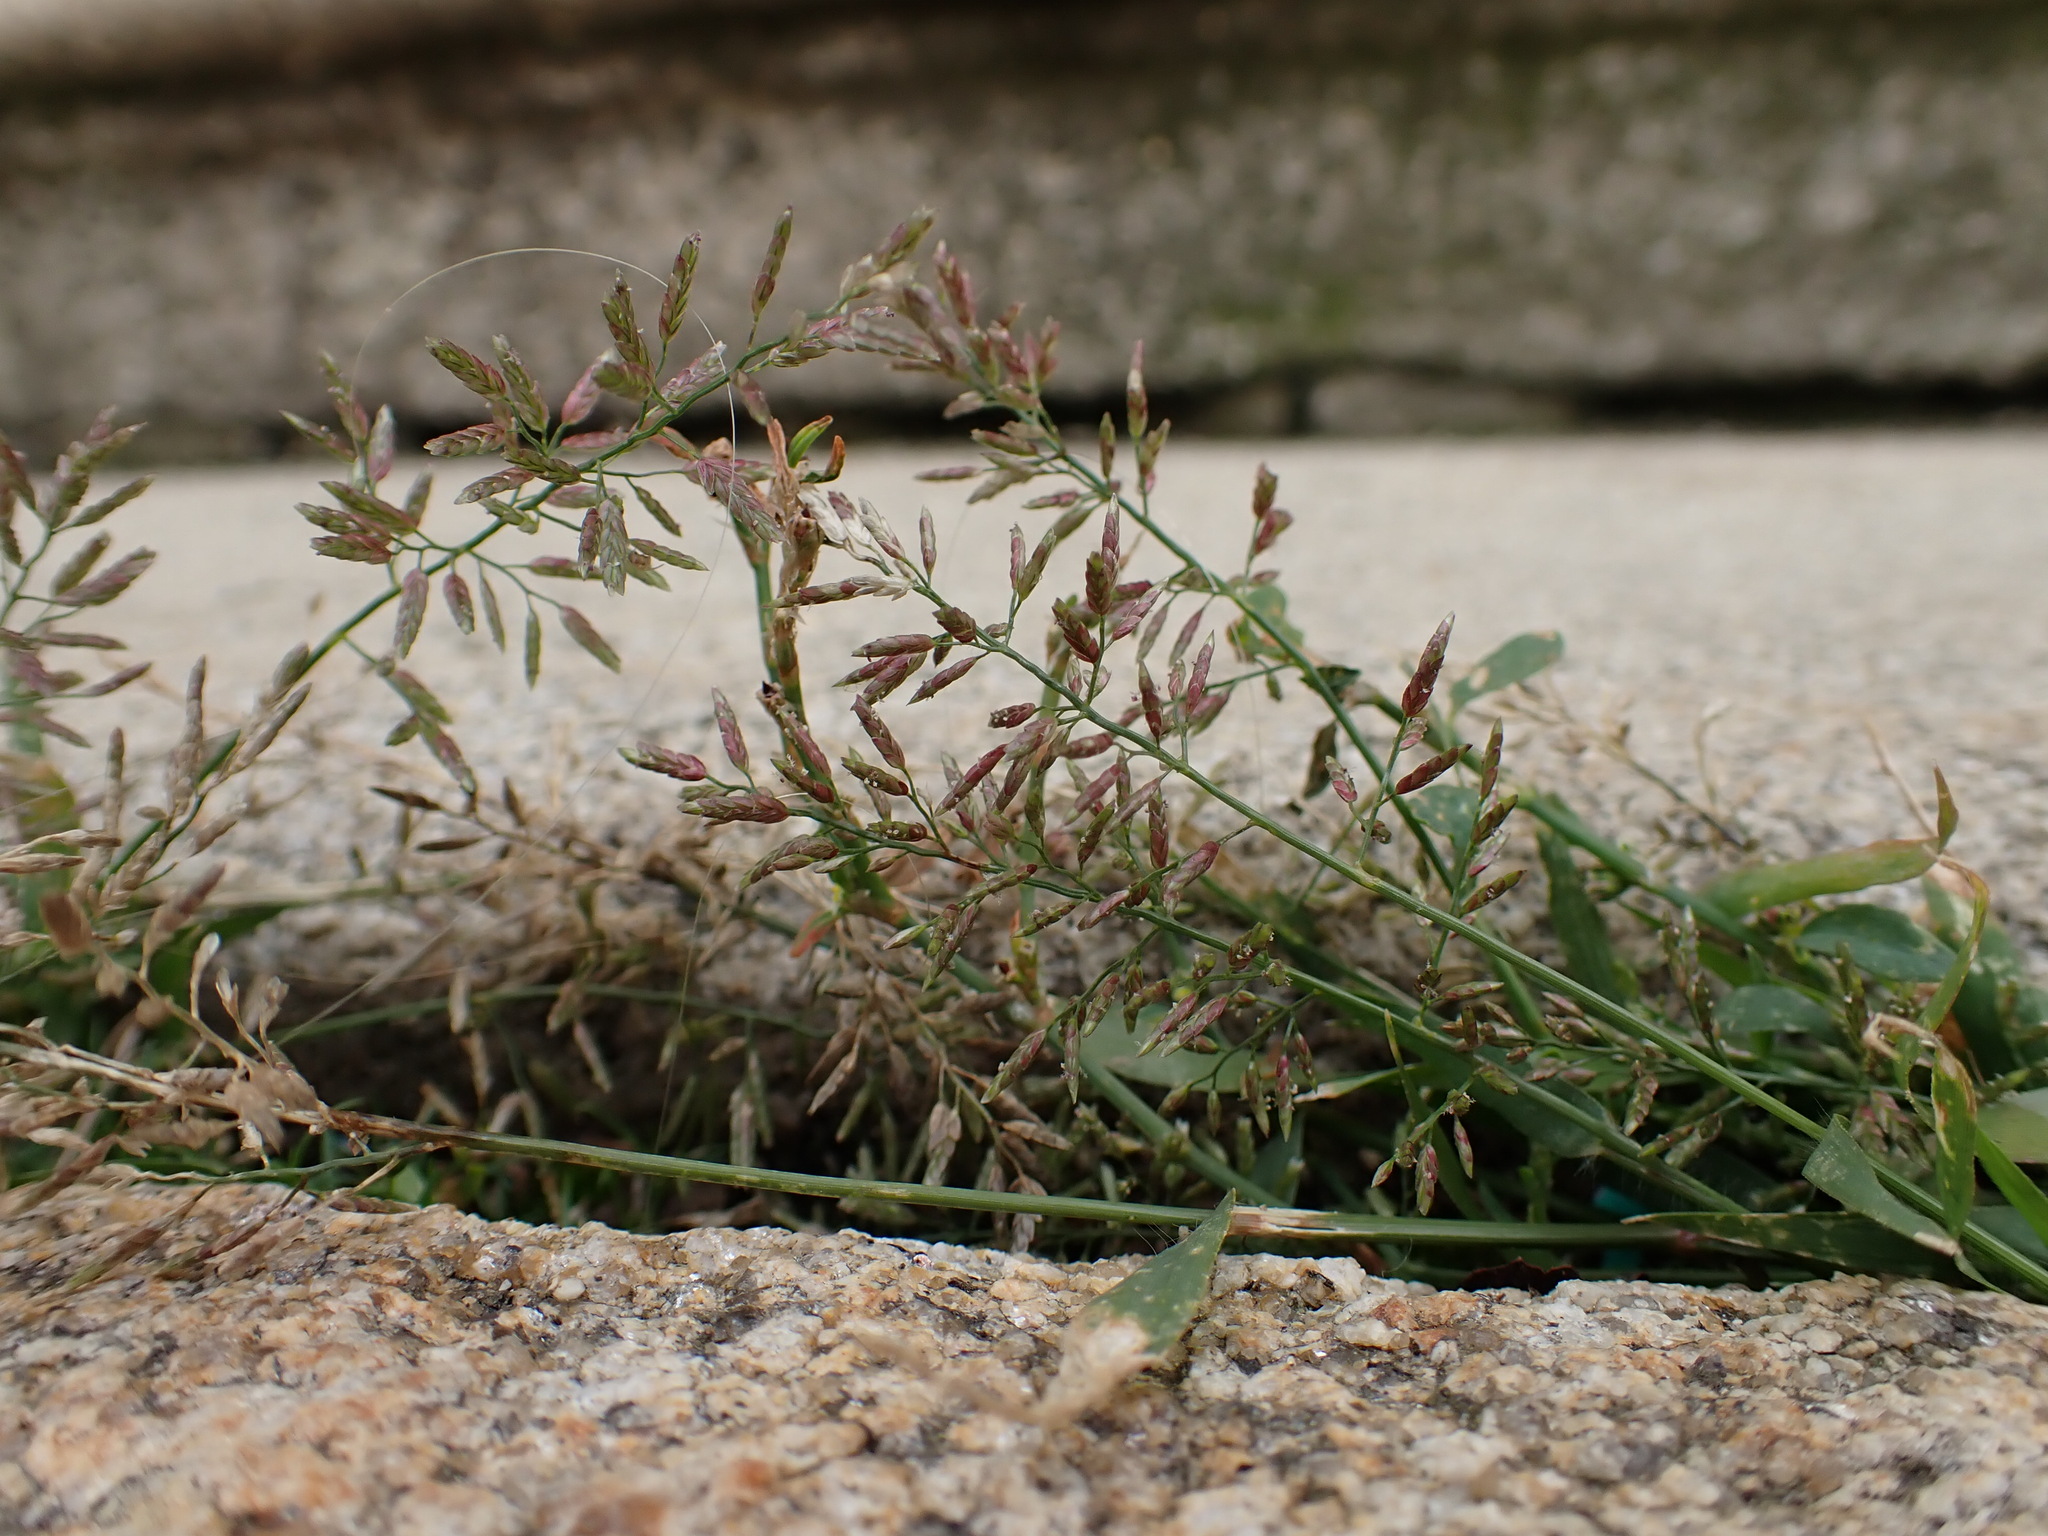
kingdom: Plantae
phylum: Tracheophyta
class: Liliopsida
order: Poales
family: Poaceae
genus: Eragrostis
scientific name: Eragrostis minor
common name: Small love-grass
